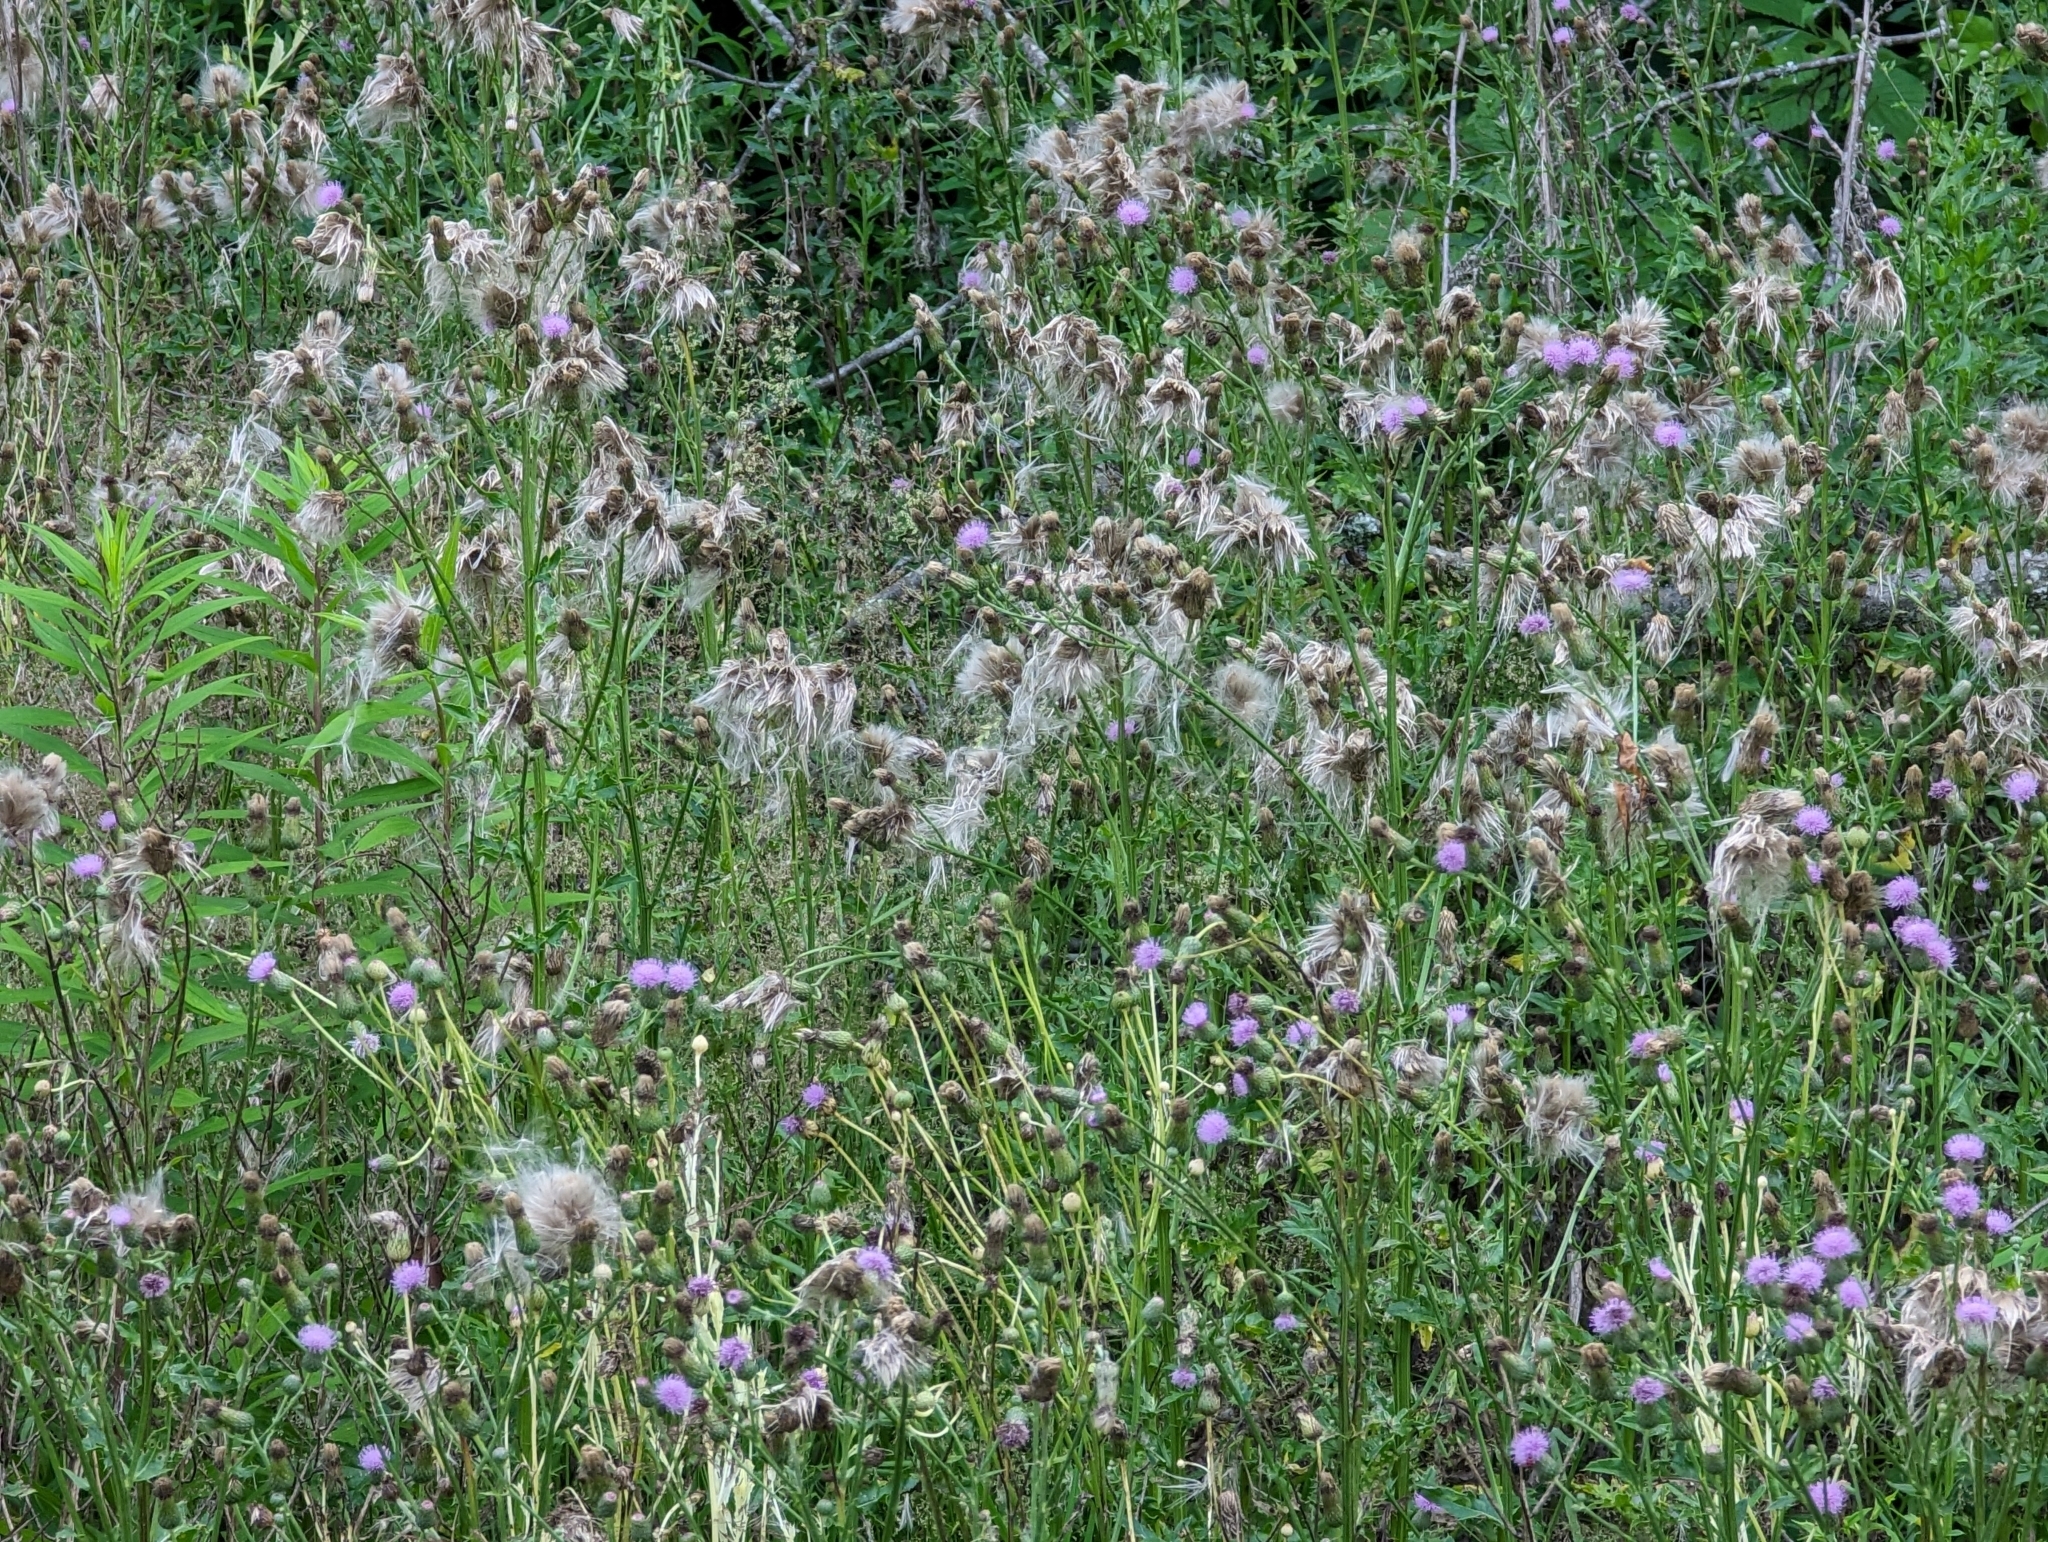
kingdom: Plantae
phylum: Tracheophyta
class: Magnoliopsida
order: Asterales
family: Asteraceae
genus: Cirsium
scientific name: Cirsium arvense
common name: Creeping thistle
